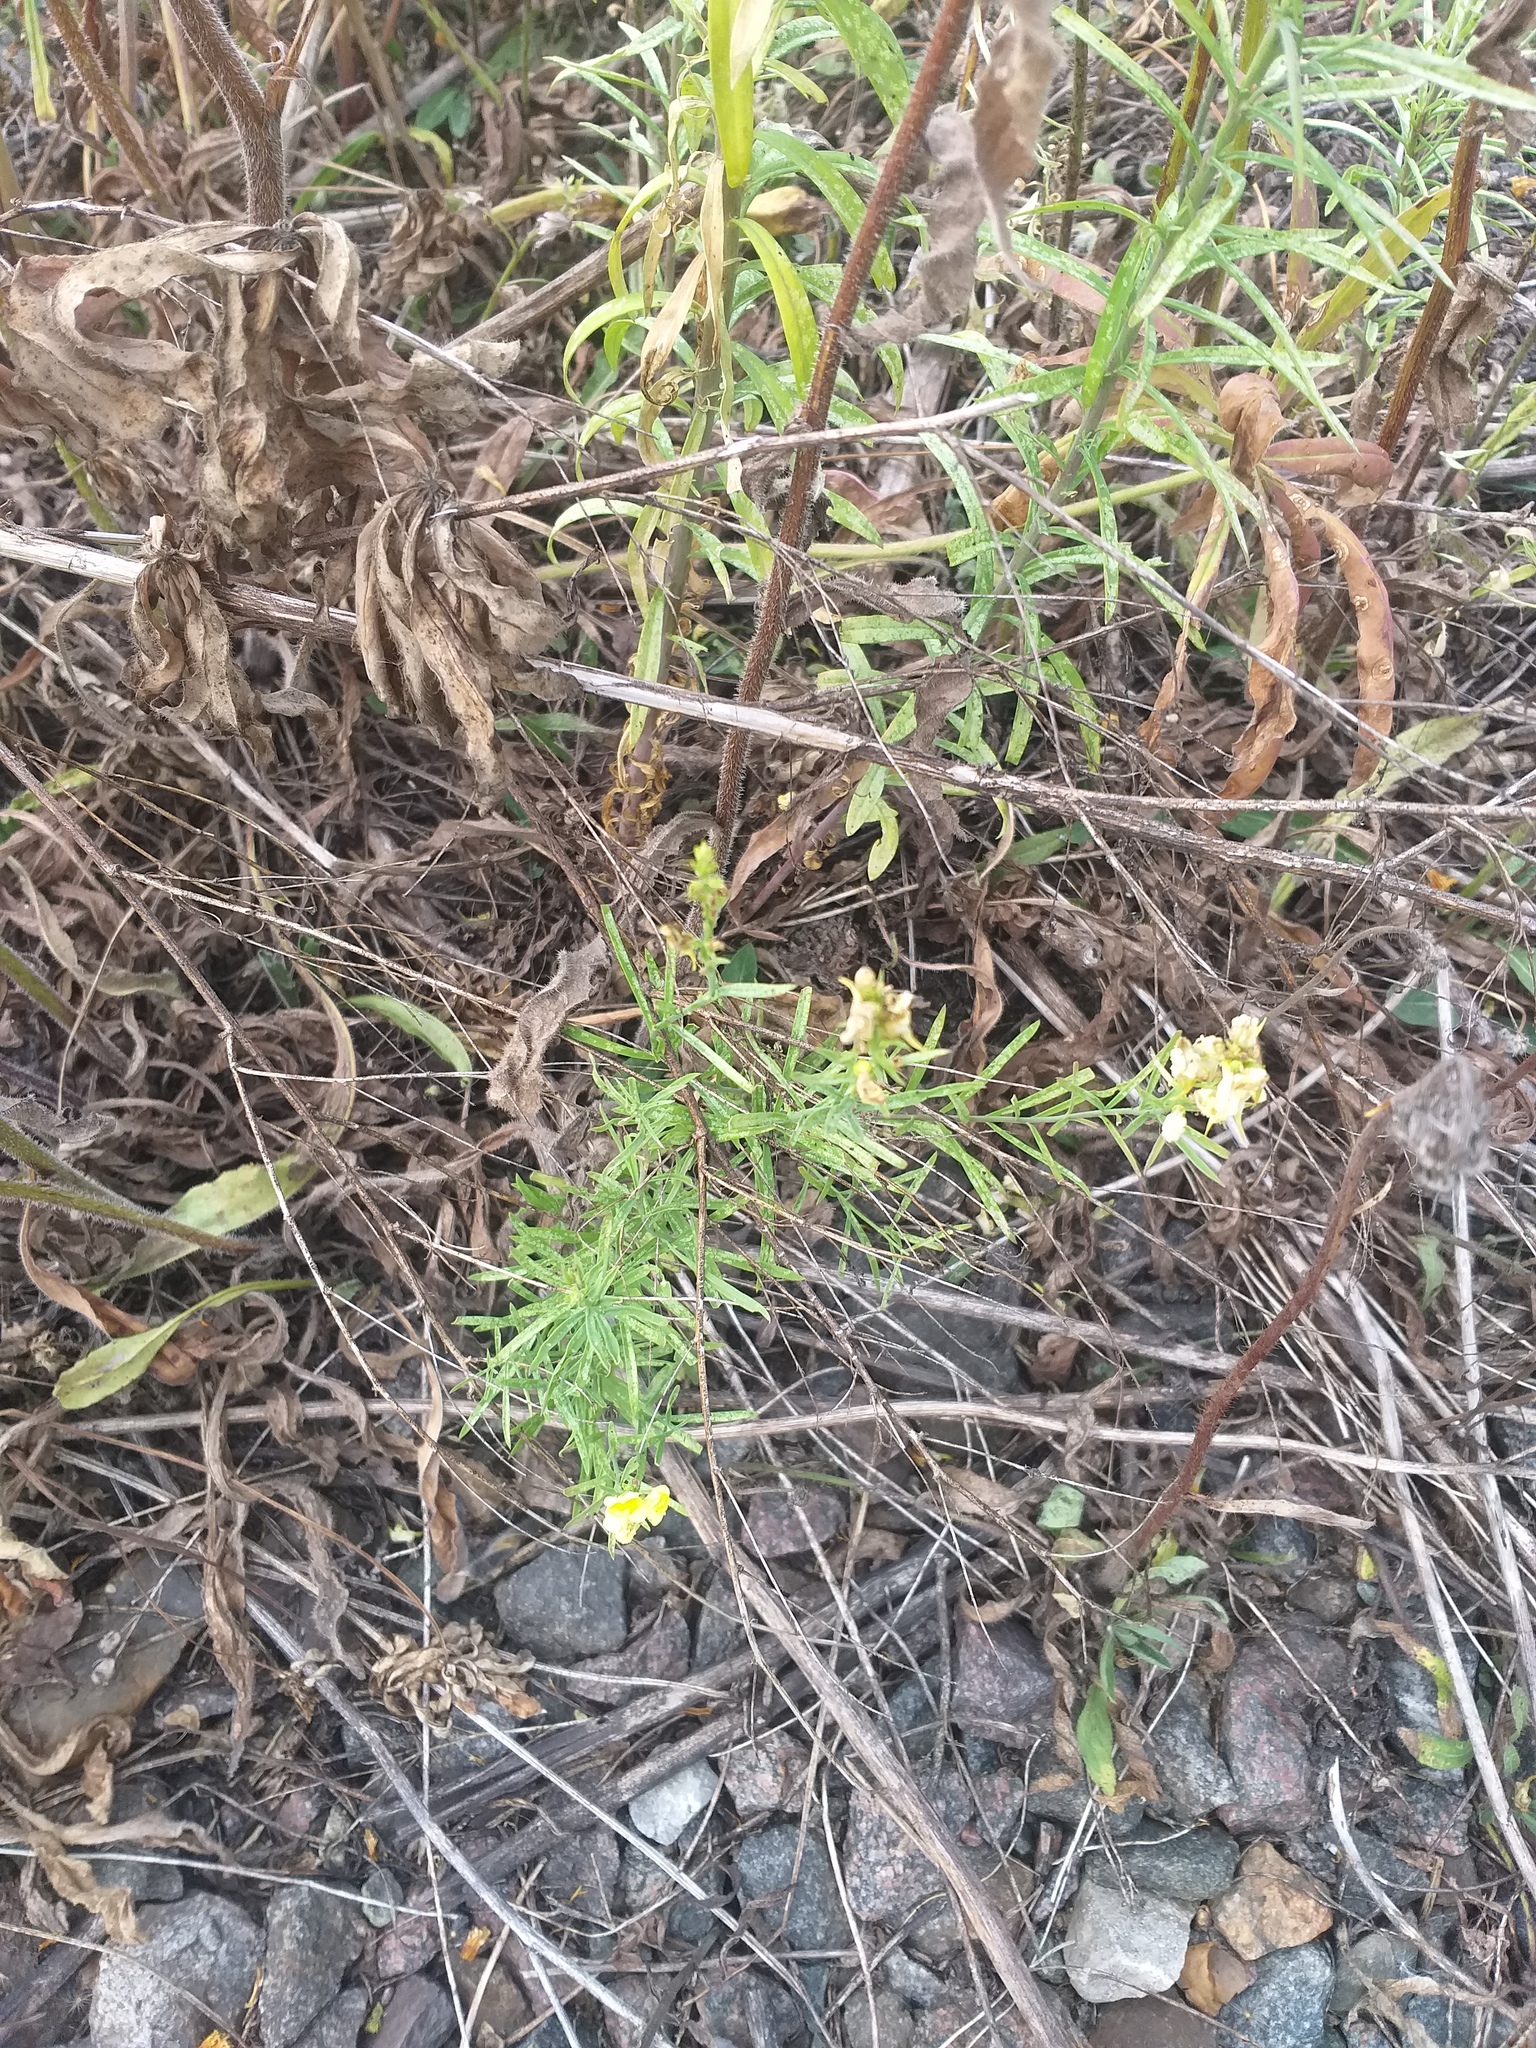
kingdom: Plantae
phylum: Tracheophyta
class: Magnoliopsida
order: Lamiales
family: Plantaginaceae
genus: Linaria
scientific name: Linaria vulgaris
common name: Butter and eggs
